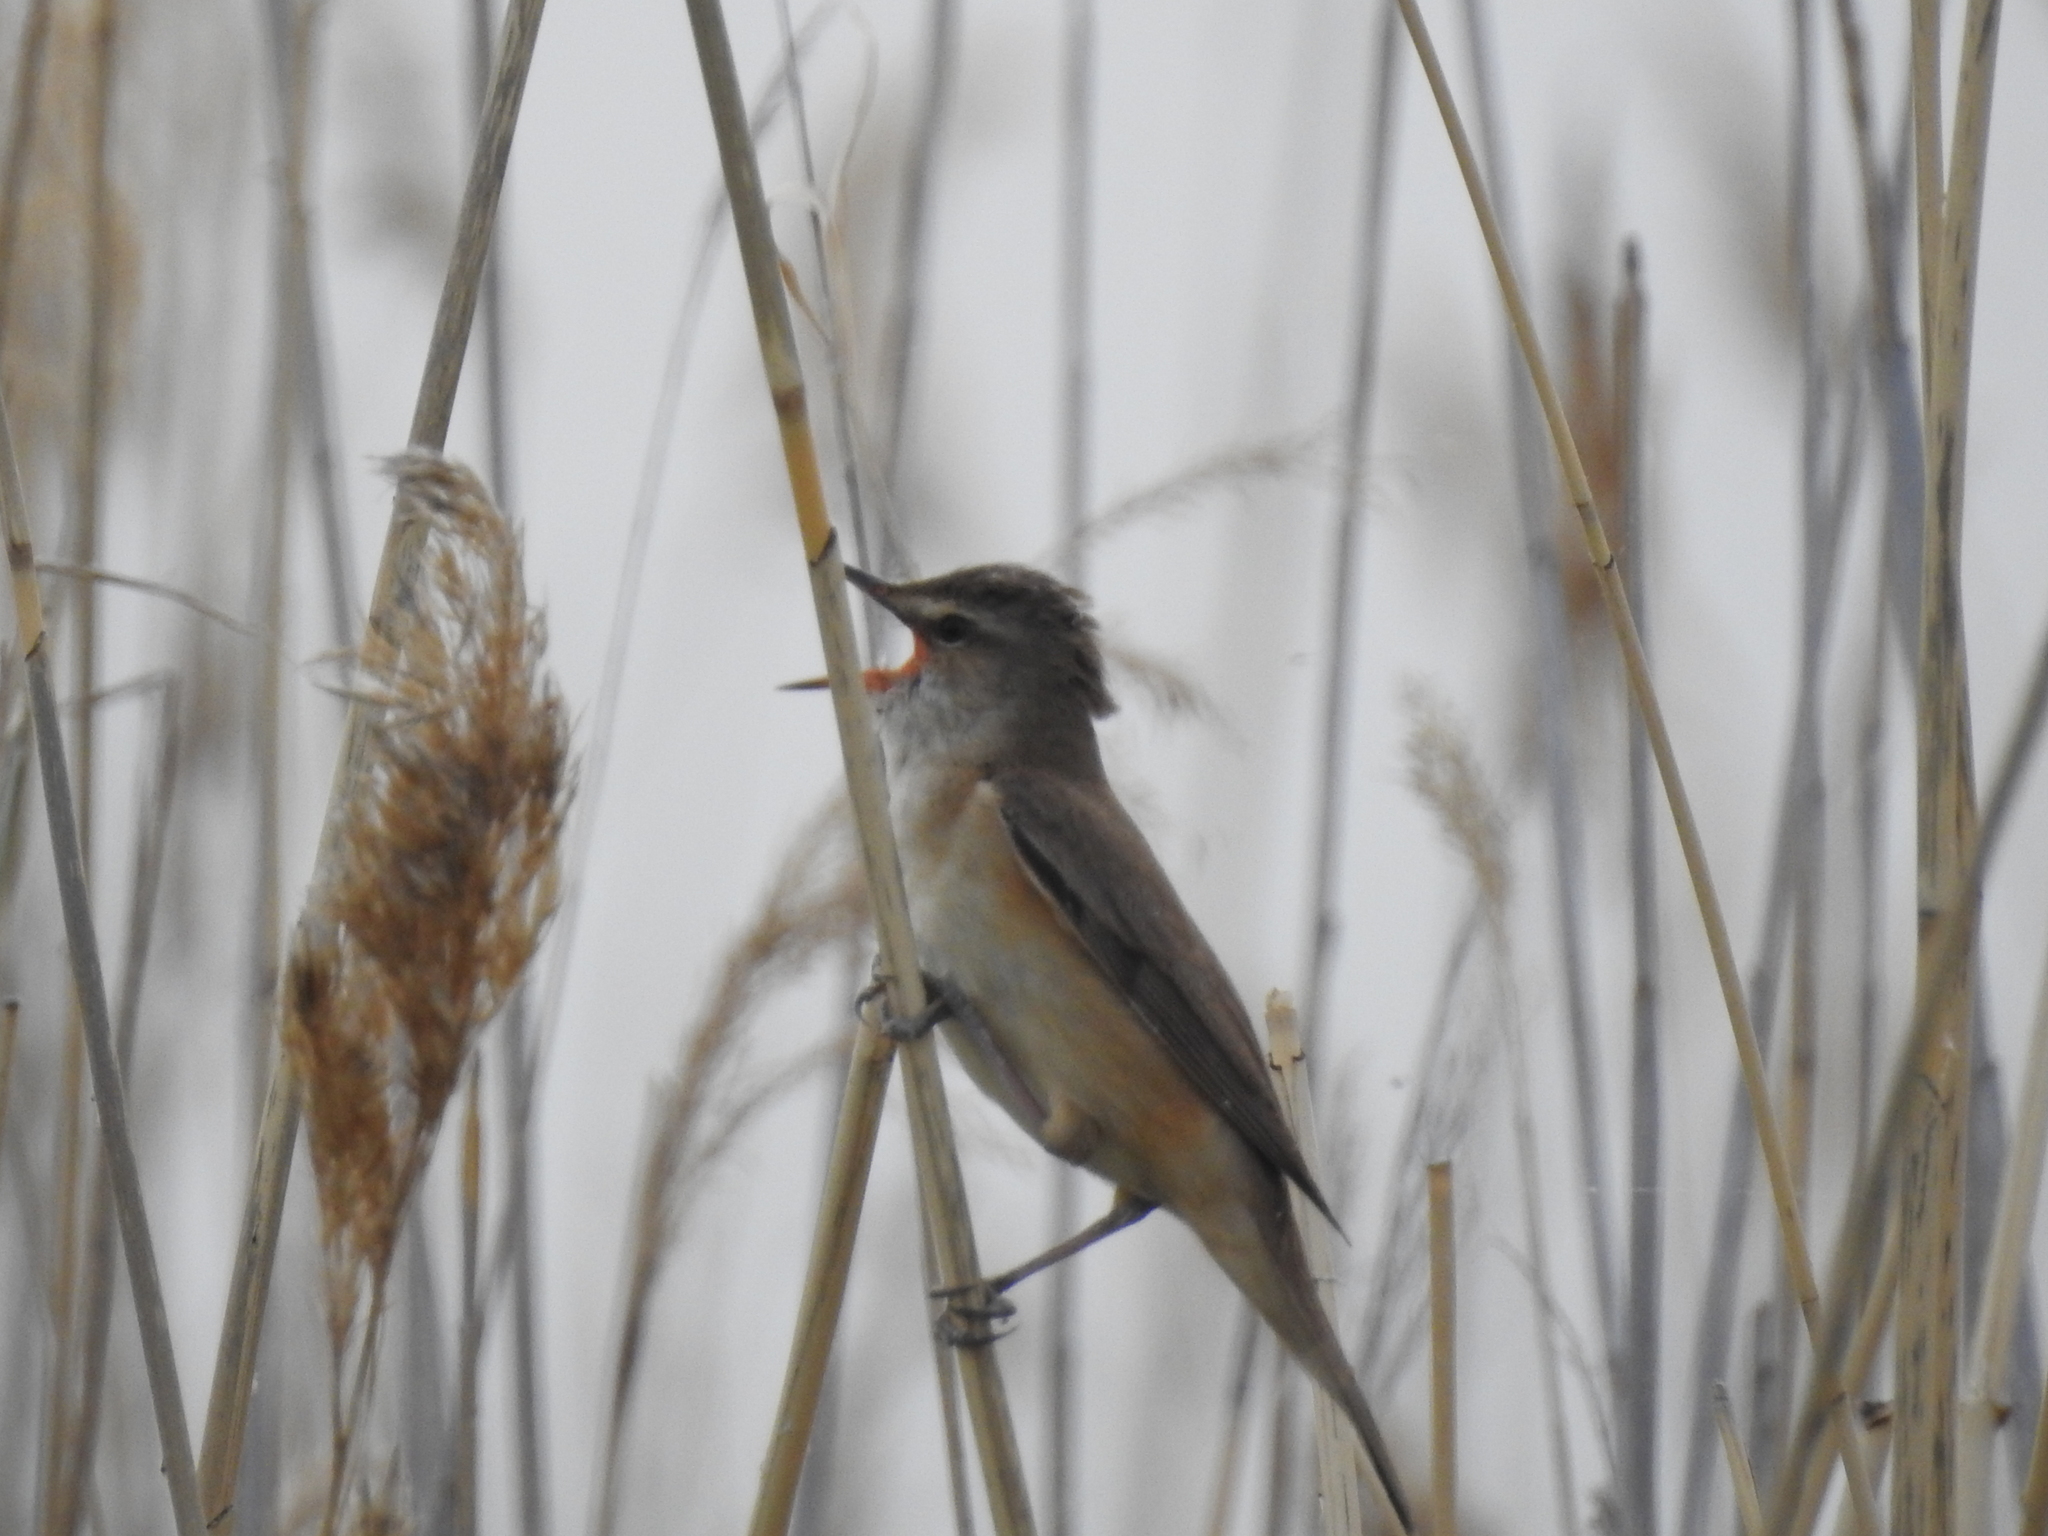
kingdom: Animalia
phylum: Chordata
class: Aves
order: Passeriformes
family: Acrocephalidae
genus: Acrocephalus
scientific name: Acrocephalus arundinaceus
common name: Great reed warbler
